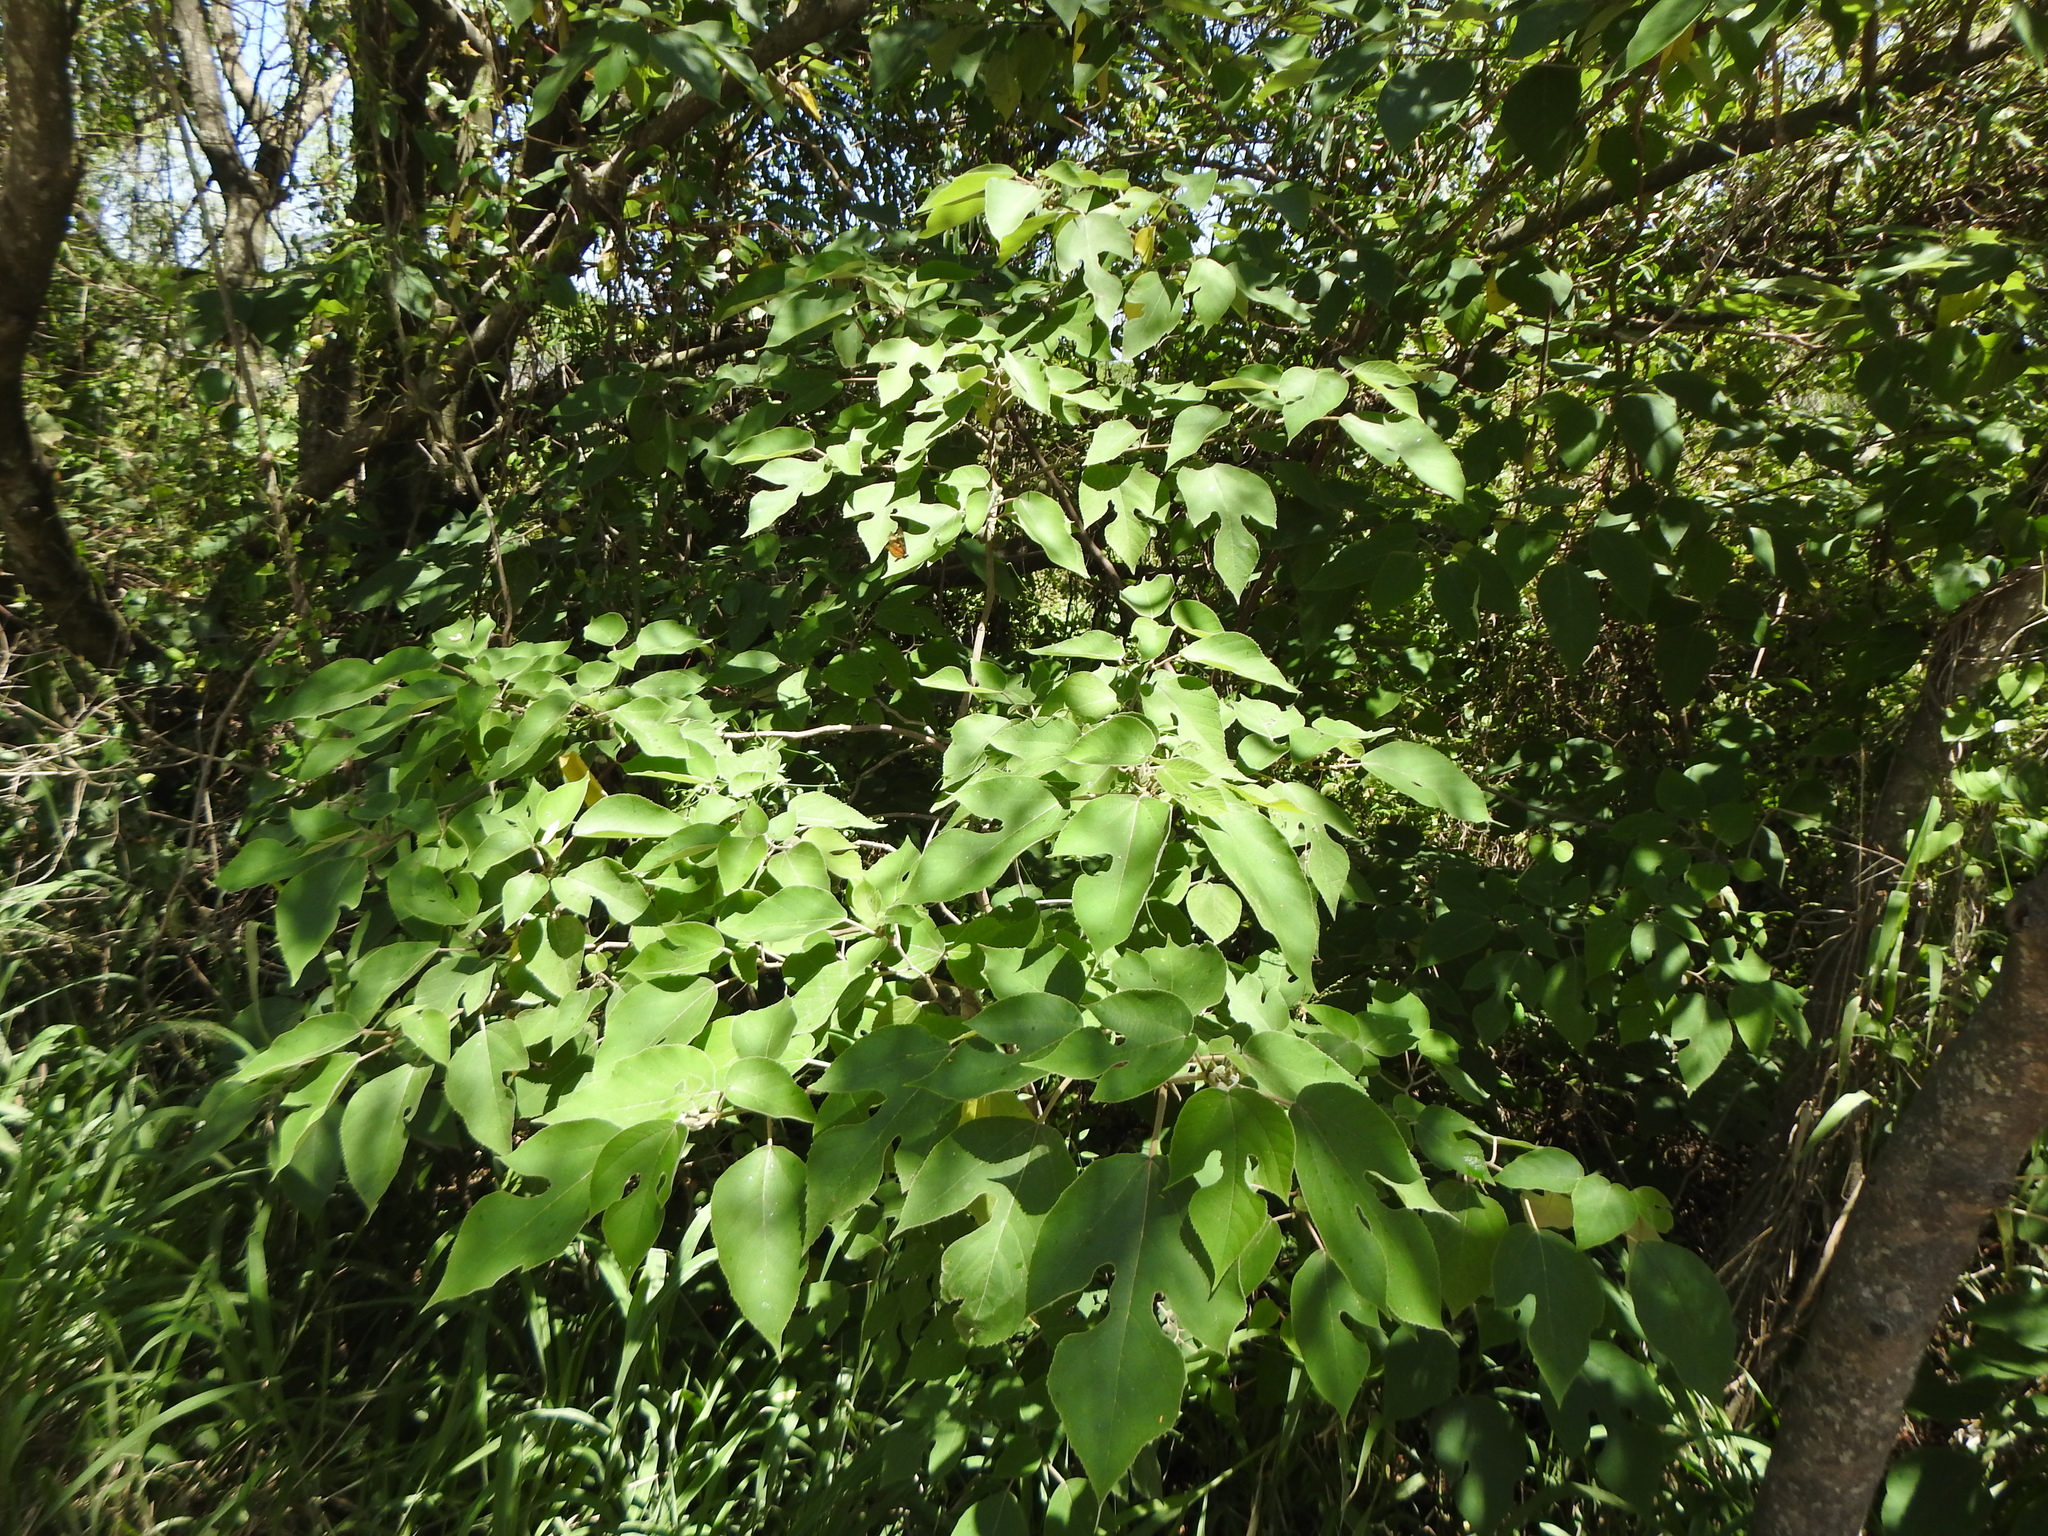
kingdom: Plantae
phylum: Tracheophyta
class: Magnoliopsida
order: Rosales
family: Moraceae
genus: Broussonetia
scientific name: Broussonetia papyrifera
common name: Paper mulberry
